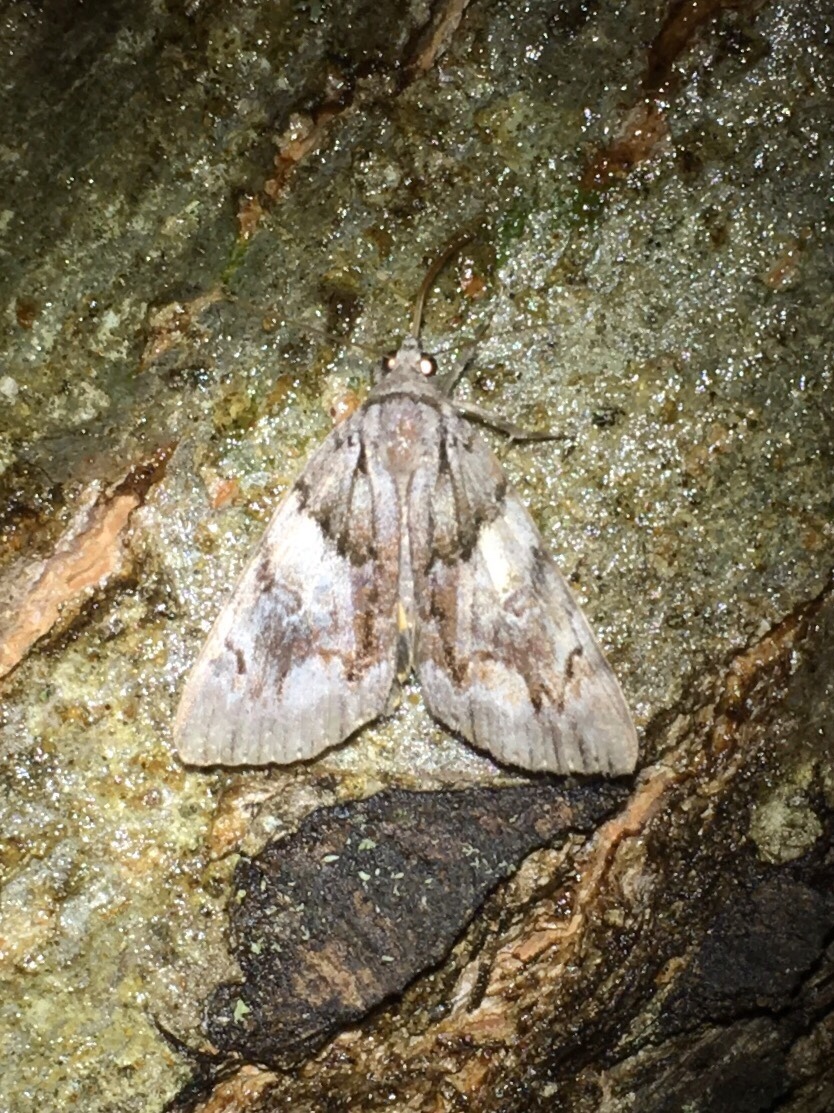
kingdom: Animalia
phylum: Arthropoda
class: Insecta
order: Lepidoptera
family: Erebidae
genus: Catocala
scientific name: Catocala blandula
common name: Charming underwing
